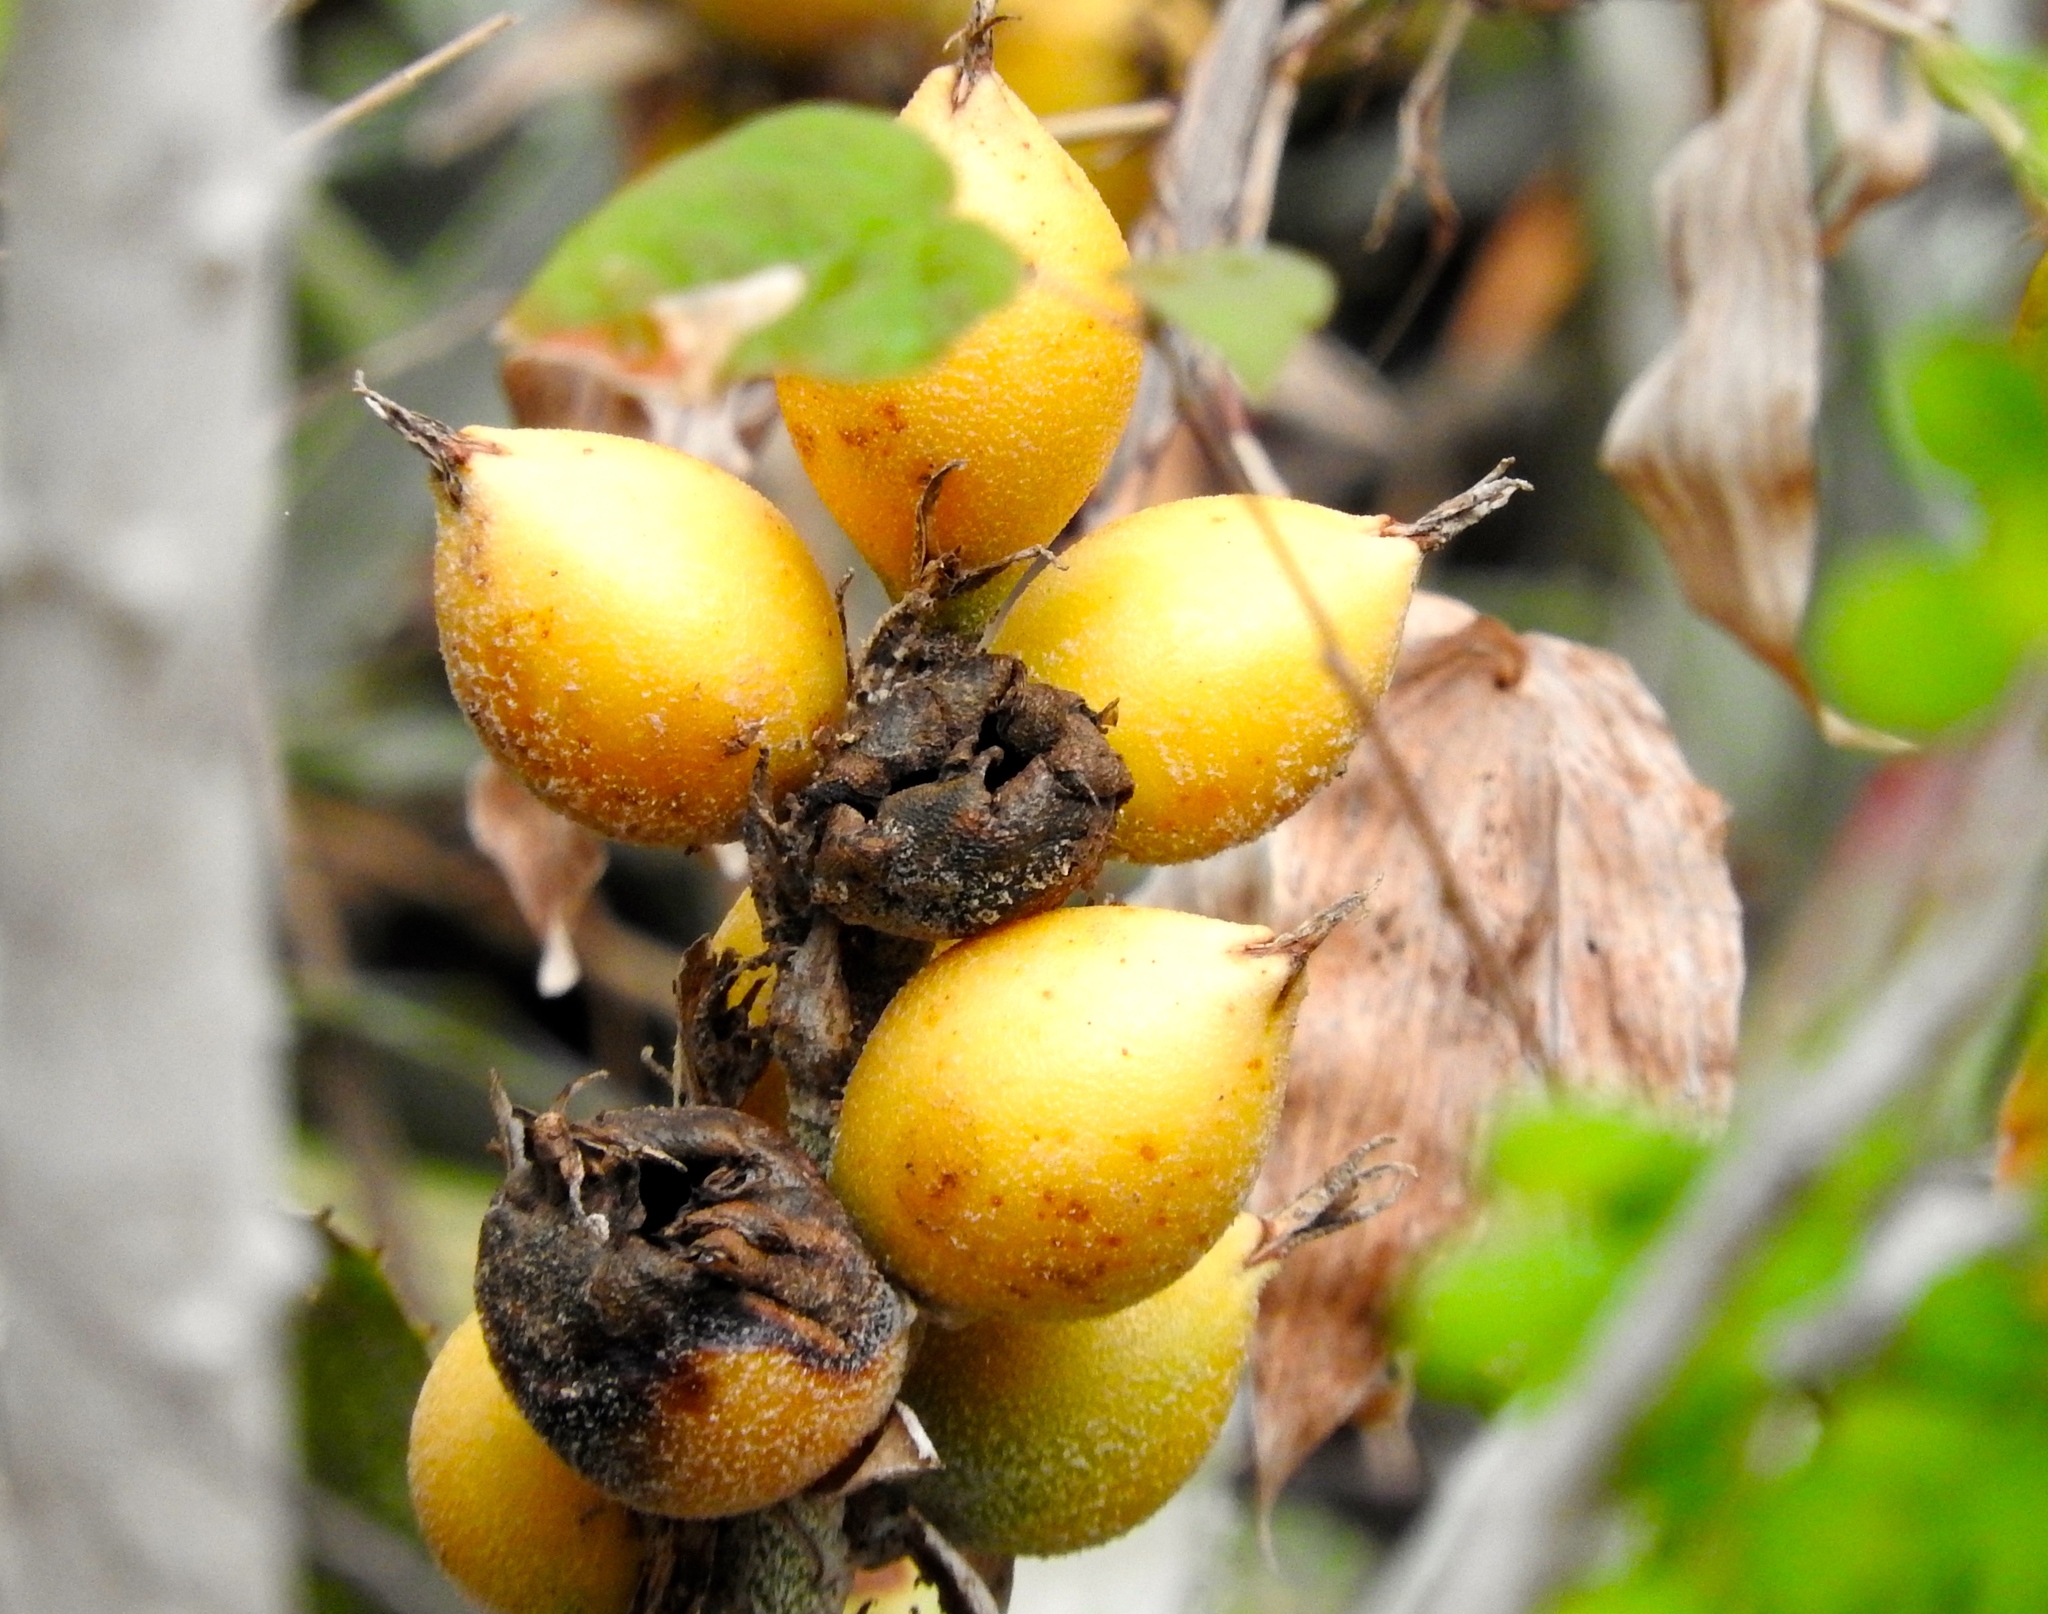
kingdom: Plantae
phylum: Tracheophyta
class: Liliopsida
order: Poales
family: Bromeliaceae
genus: Bromelia
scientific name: Bromelia pinguin
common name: Pinguin
